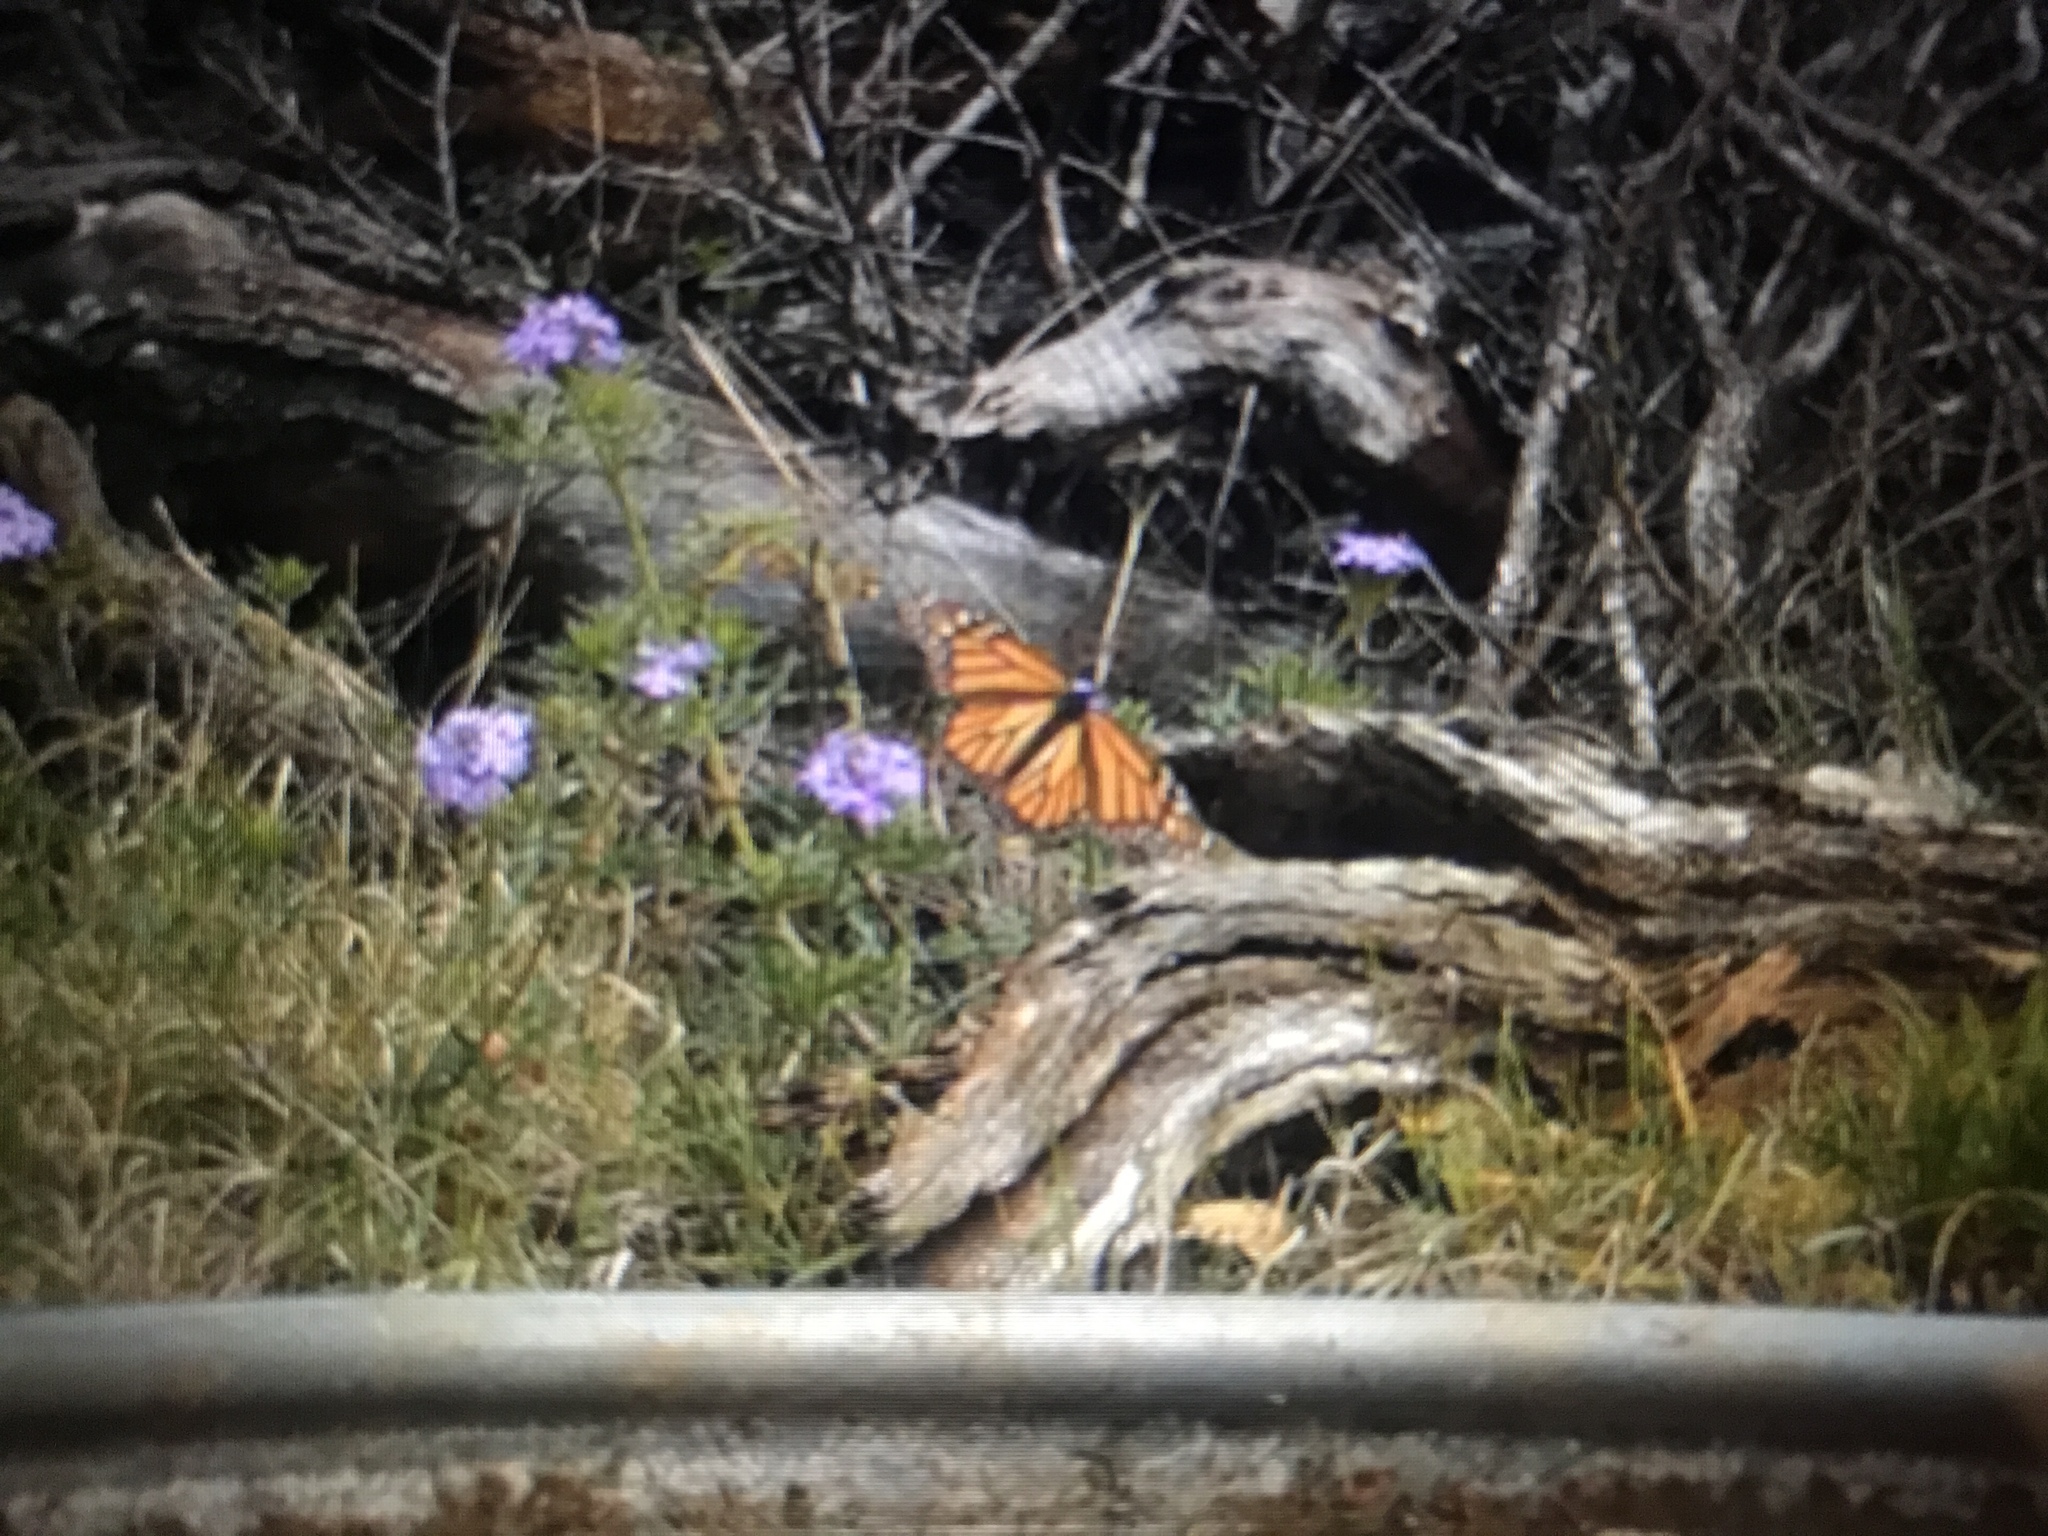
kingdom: Animalia
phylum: Arthropoda
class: Insecta
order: Lepidoptera
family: Nymphalidae
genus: Danaus
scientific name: Danaus plexippus
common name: Monarch
